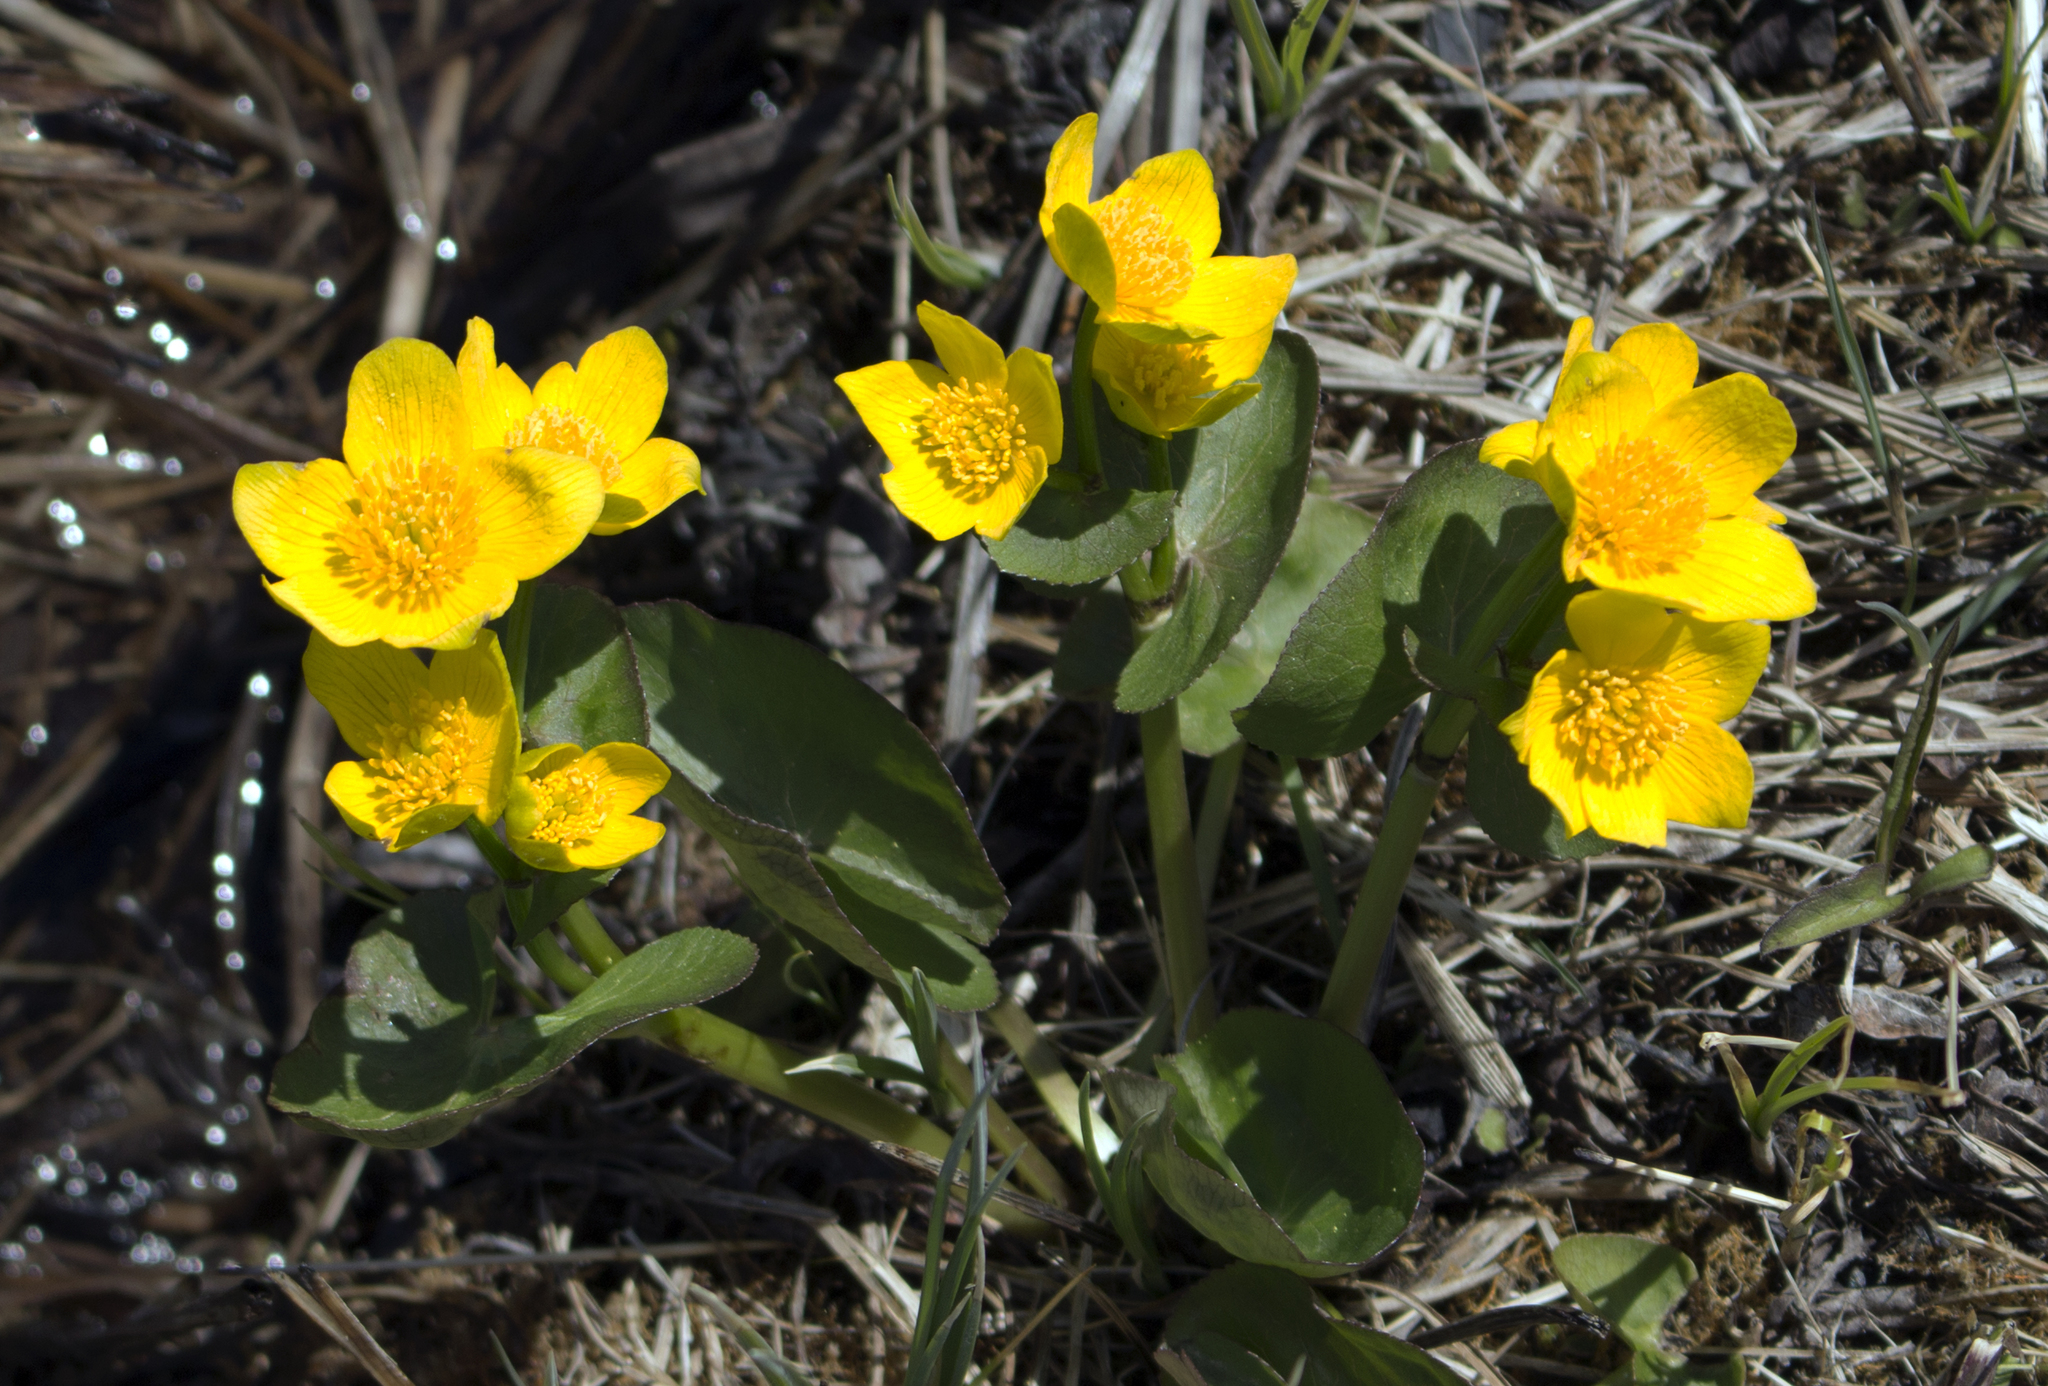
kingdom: Plantae
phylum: Tracheophyta
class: Magnoliopsida
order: Ranunculales
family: Ranunculaceae
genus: Caltha
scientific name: Caltha palustris
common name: Marsh marigold
